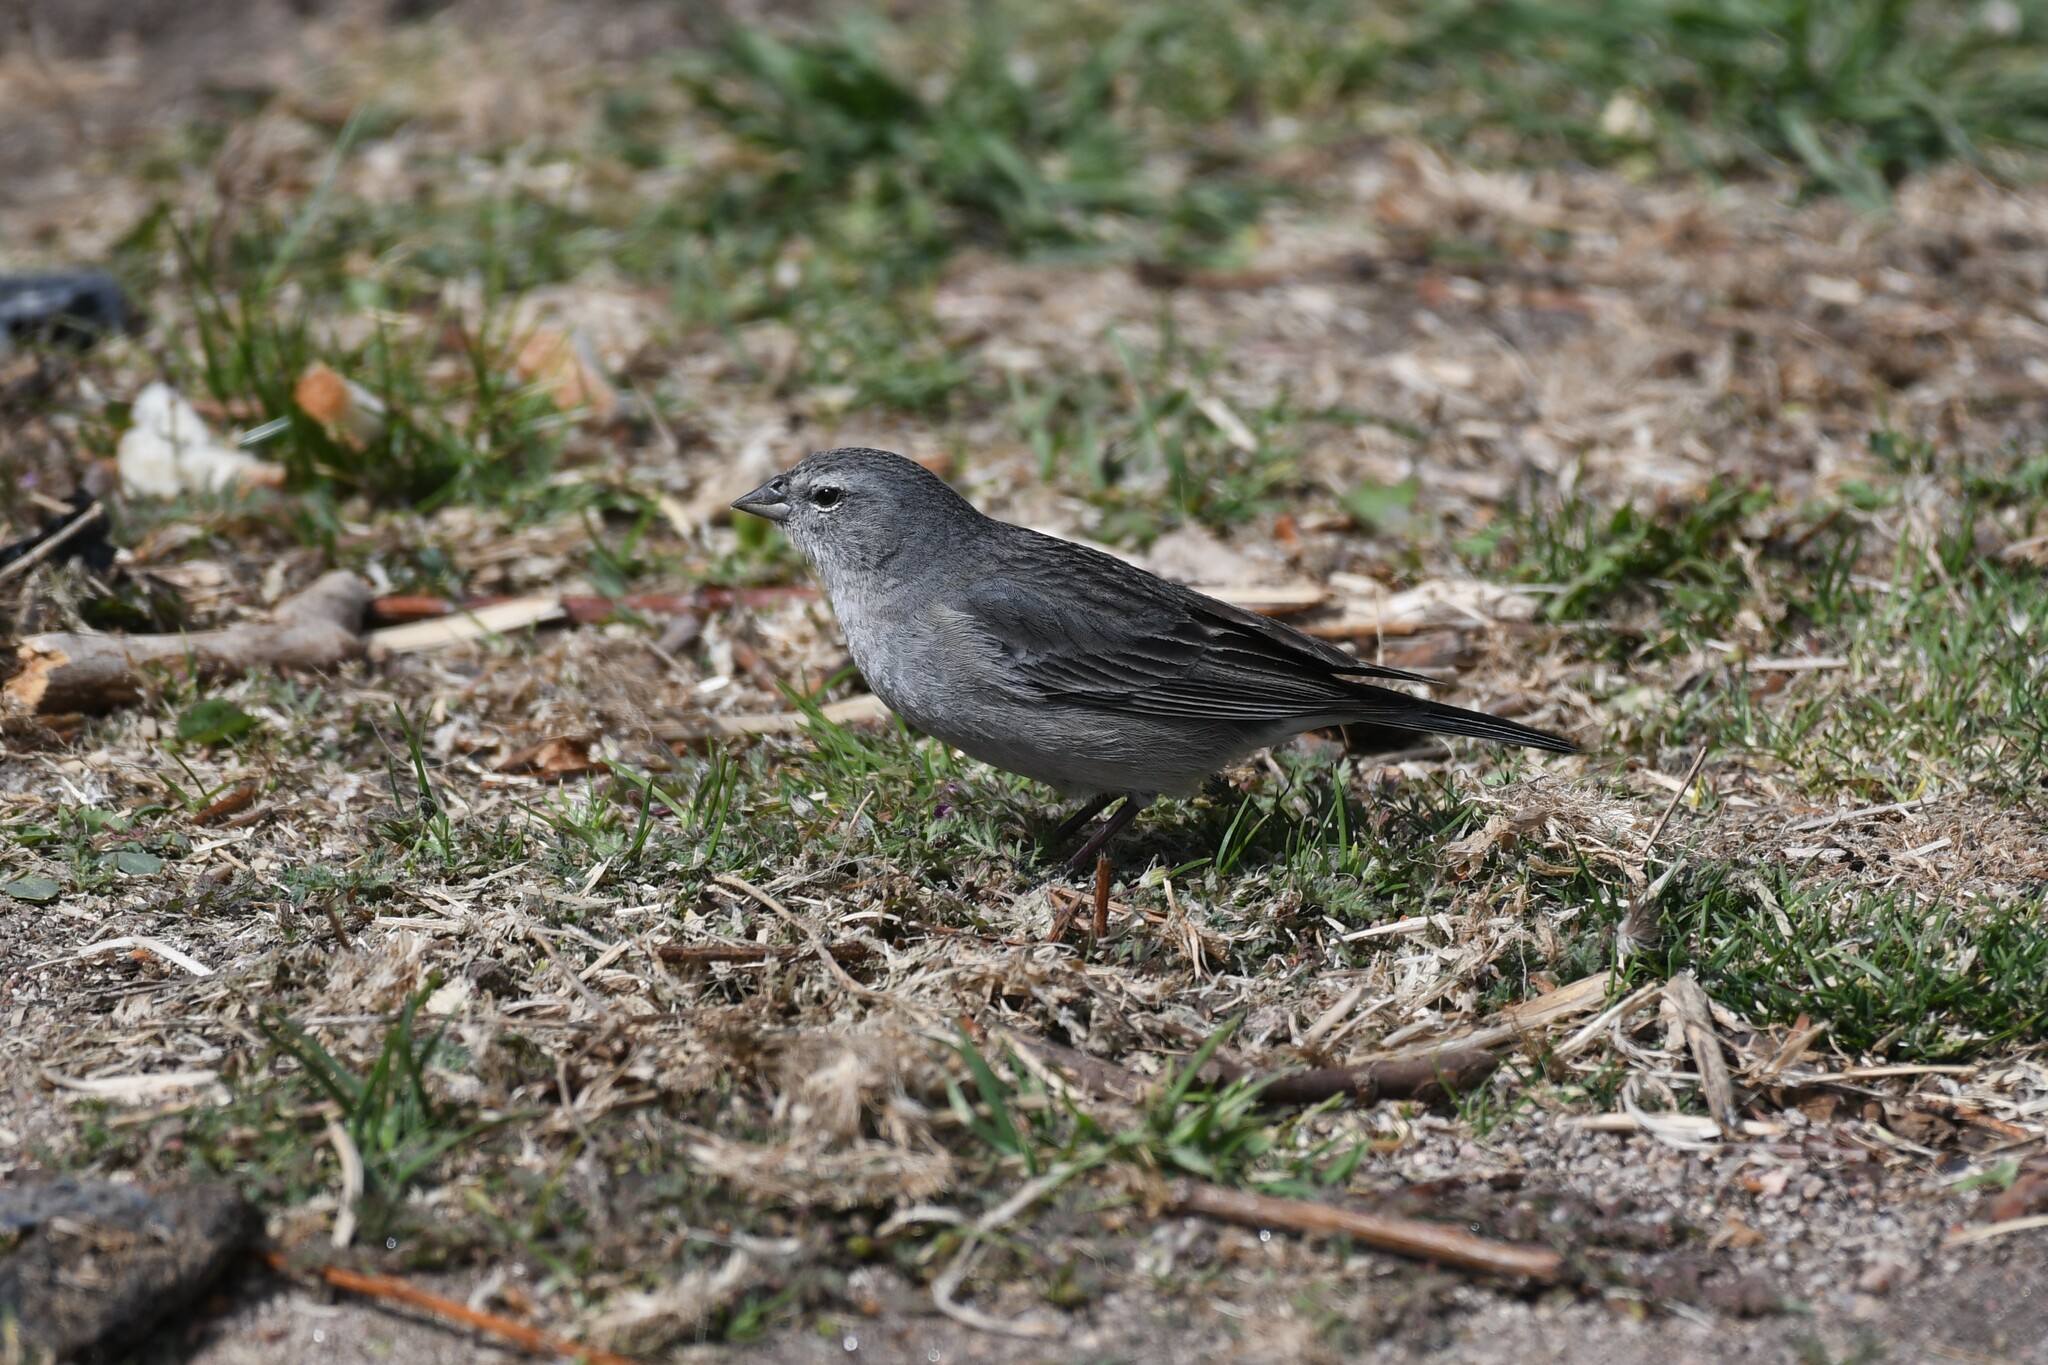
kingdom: Animalia
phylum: Chordata
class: Aves
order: Passeriformes
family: Thraupidae
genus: Geospizopsis
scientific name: Geospizopsis plebejus
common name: Ash-breasted sierra-finch
